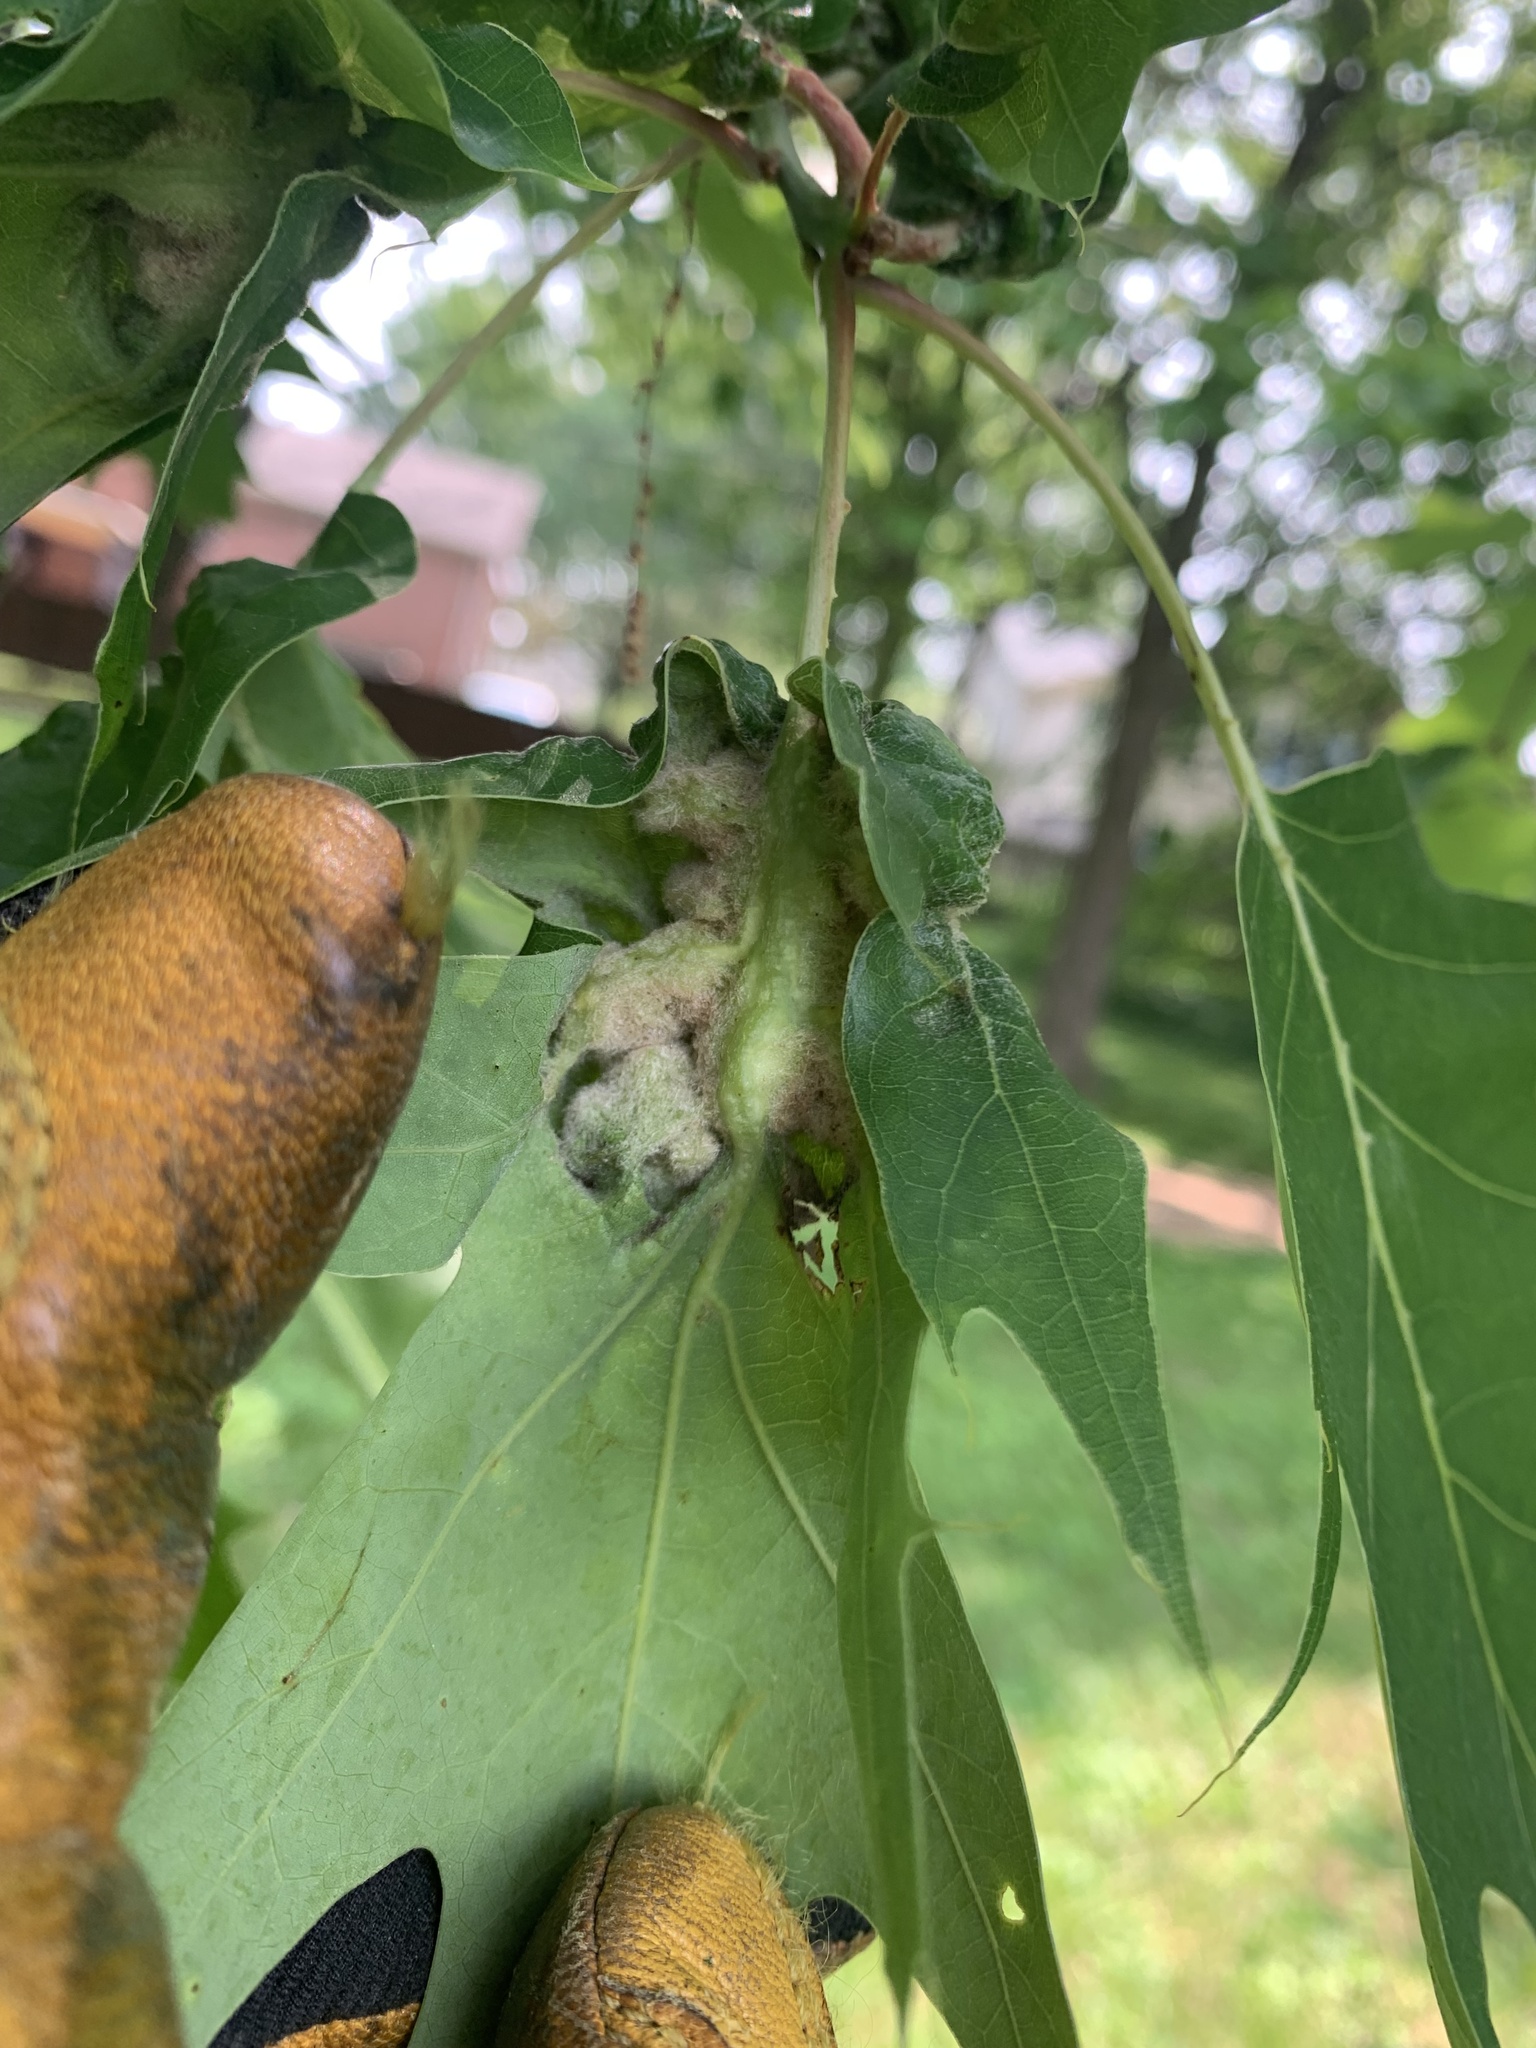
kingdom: Animalia
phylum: Arthropoda
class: Insecta
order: Diptera
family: Cecidomyiidae
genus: Macrodiplosis
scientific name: Macrodiplosis niveipila
